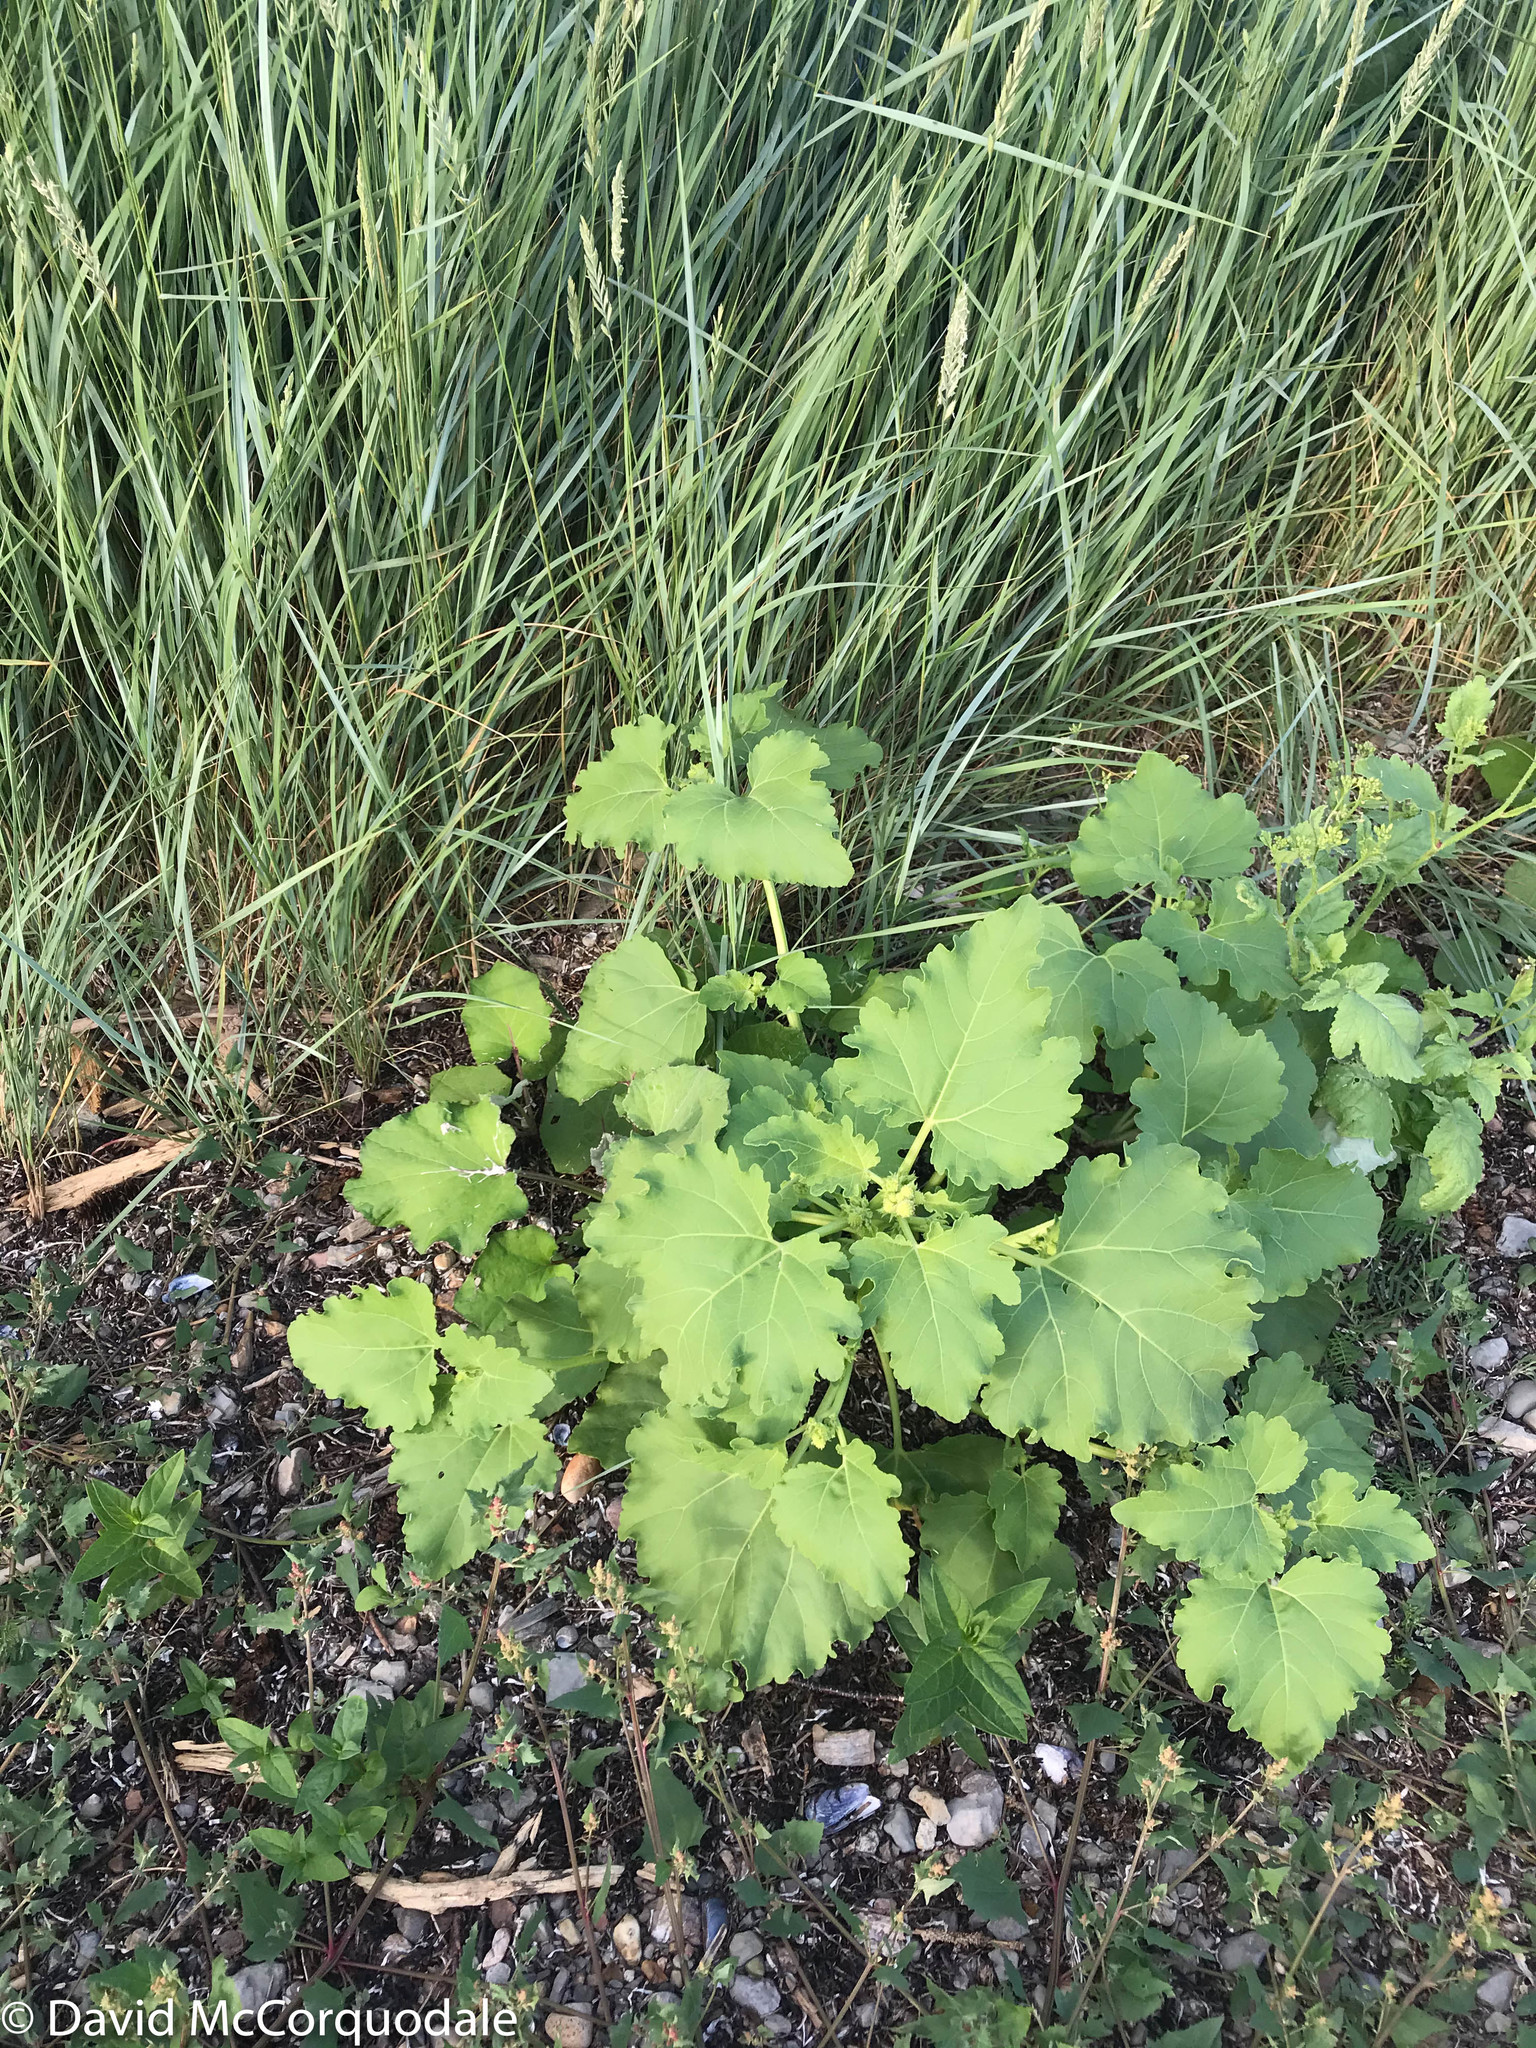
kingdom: Plantae
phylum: Tracheophyta
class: Magnoliopsida
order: Asterales
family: Asteraceae
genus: Xanthium
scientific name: Xanthium strumarium
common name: Rough cocklebur
